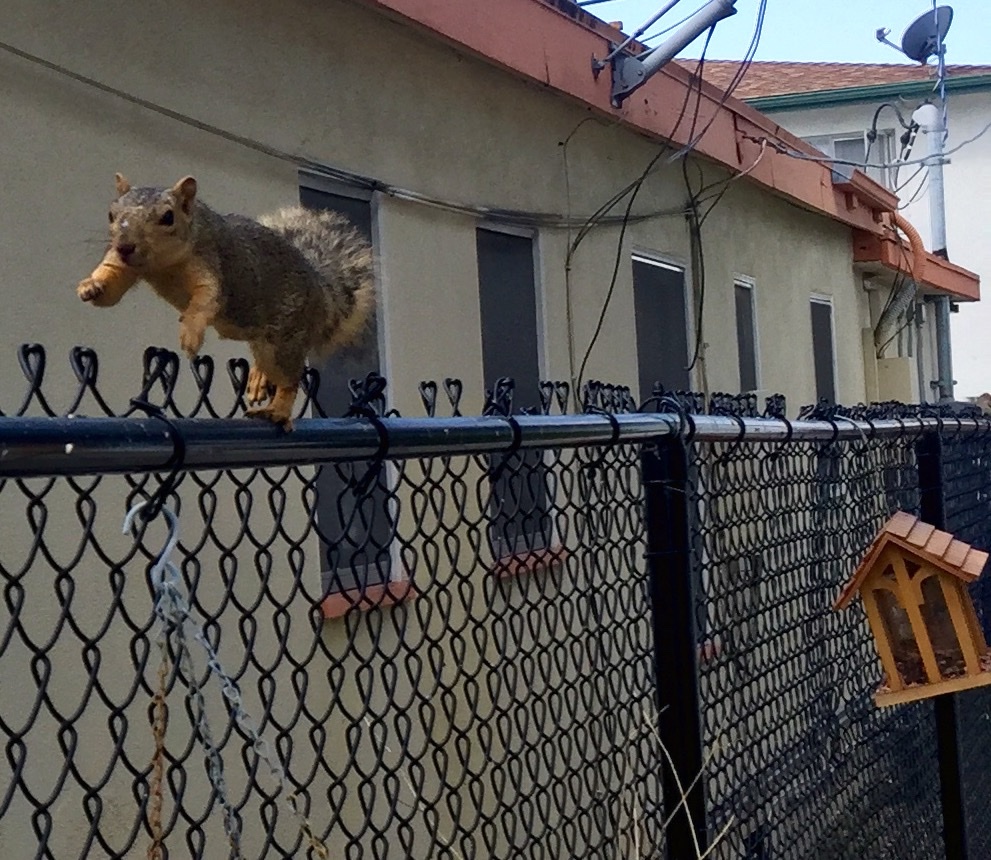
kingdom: Animalia
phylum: Chordata
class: Mammalia
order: Rodentia
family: Sciuridae
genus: Sciurus
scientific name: Sciurus niger
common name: Fox squirrel
